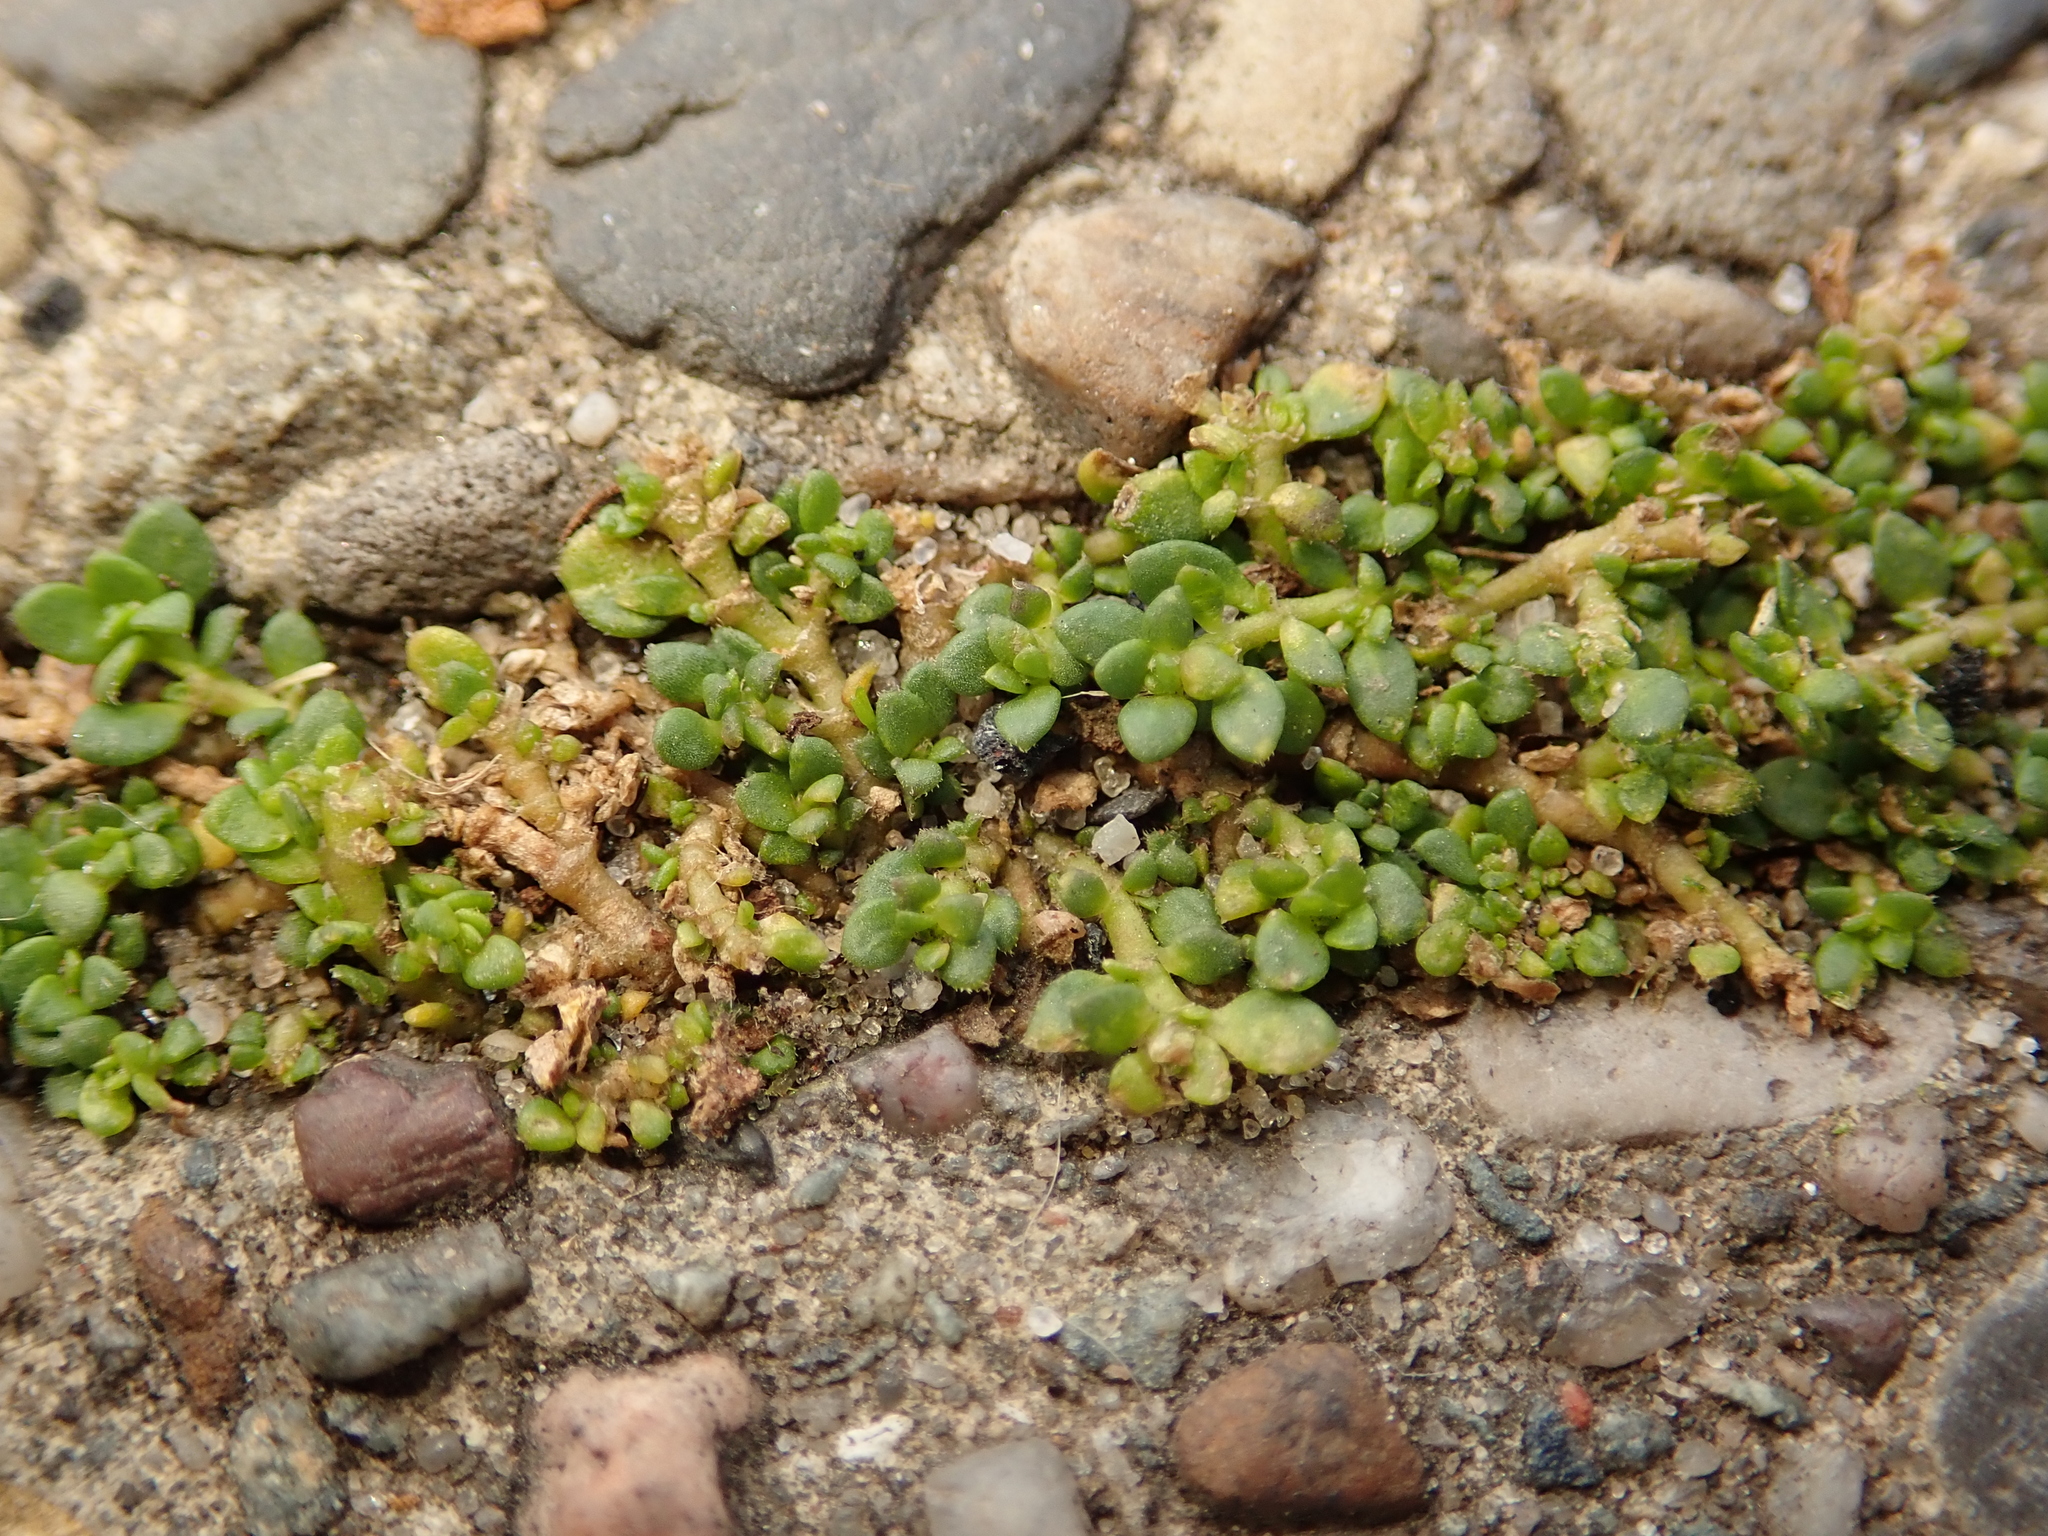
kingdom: Plantae
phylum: Tracheophyta
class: Magnoliopsida
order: Caryophyllales
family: Caryophyllaceae
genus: Herniaria
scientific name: Herniaria glabra
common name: Smooth rupturewort
